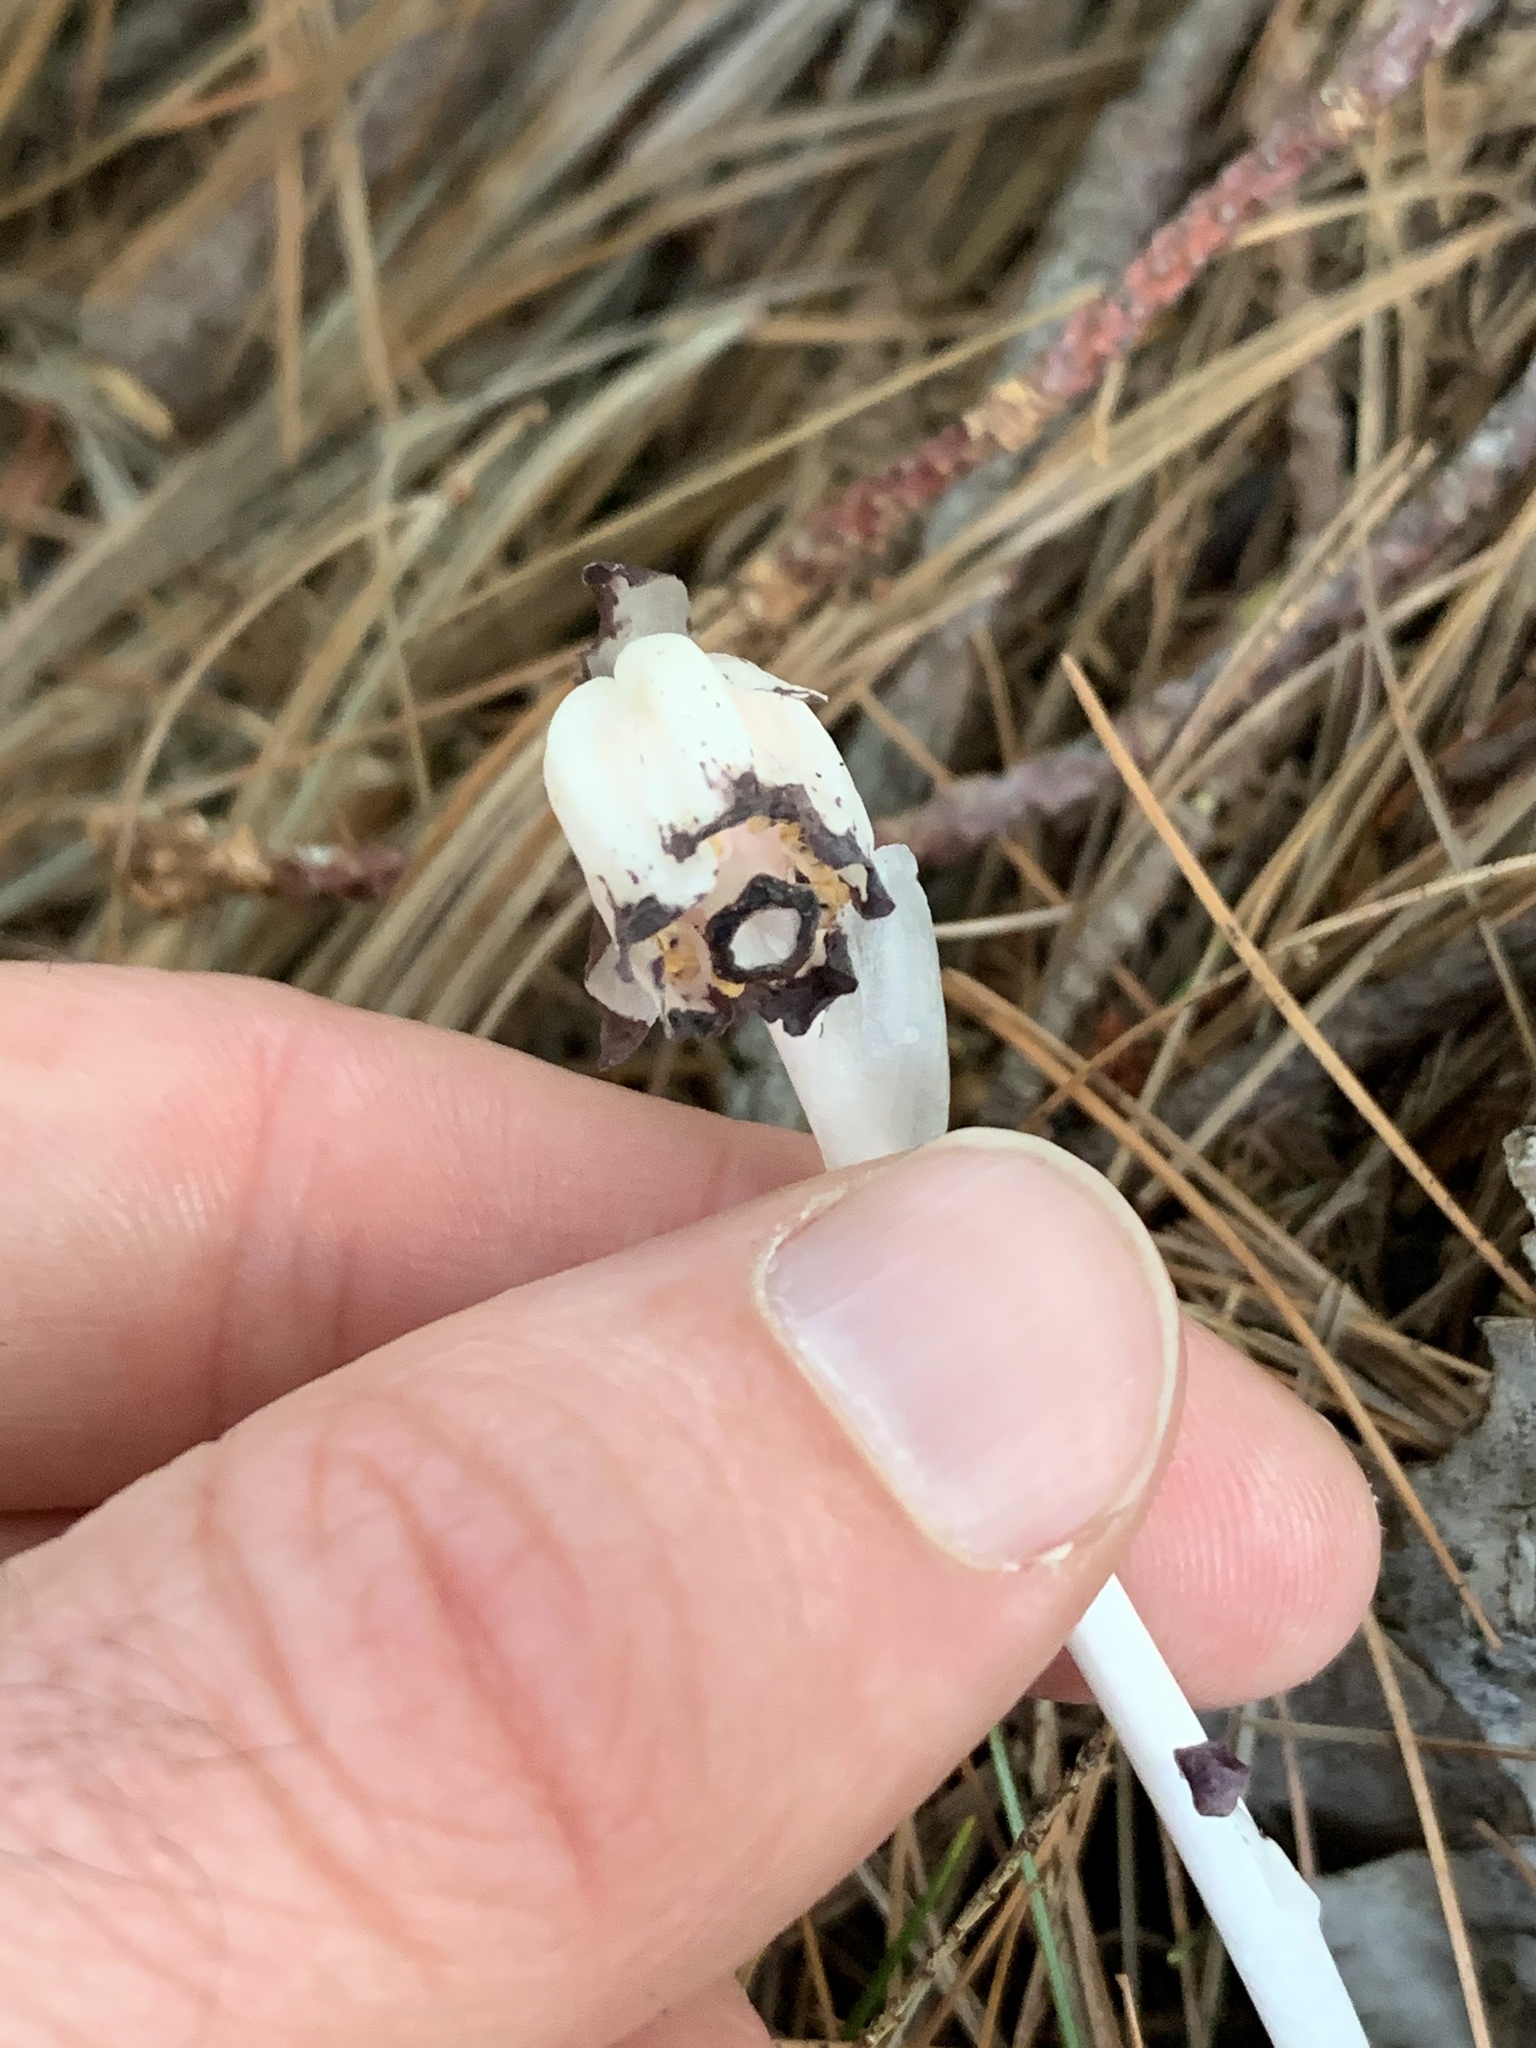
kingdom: Plantae
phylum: Tracheophyta
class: Magnoliopsida
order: Ericales
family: Ericaceae
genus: Monotropa
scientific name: Monotropa uniflora
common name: Convulsion root
